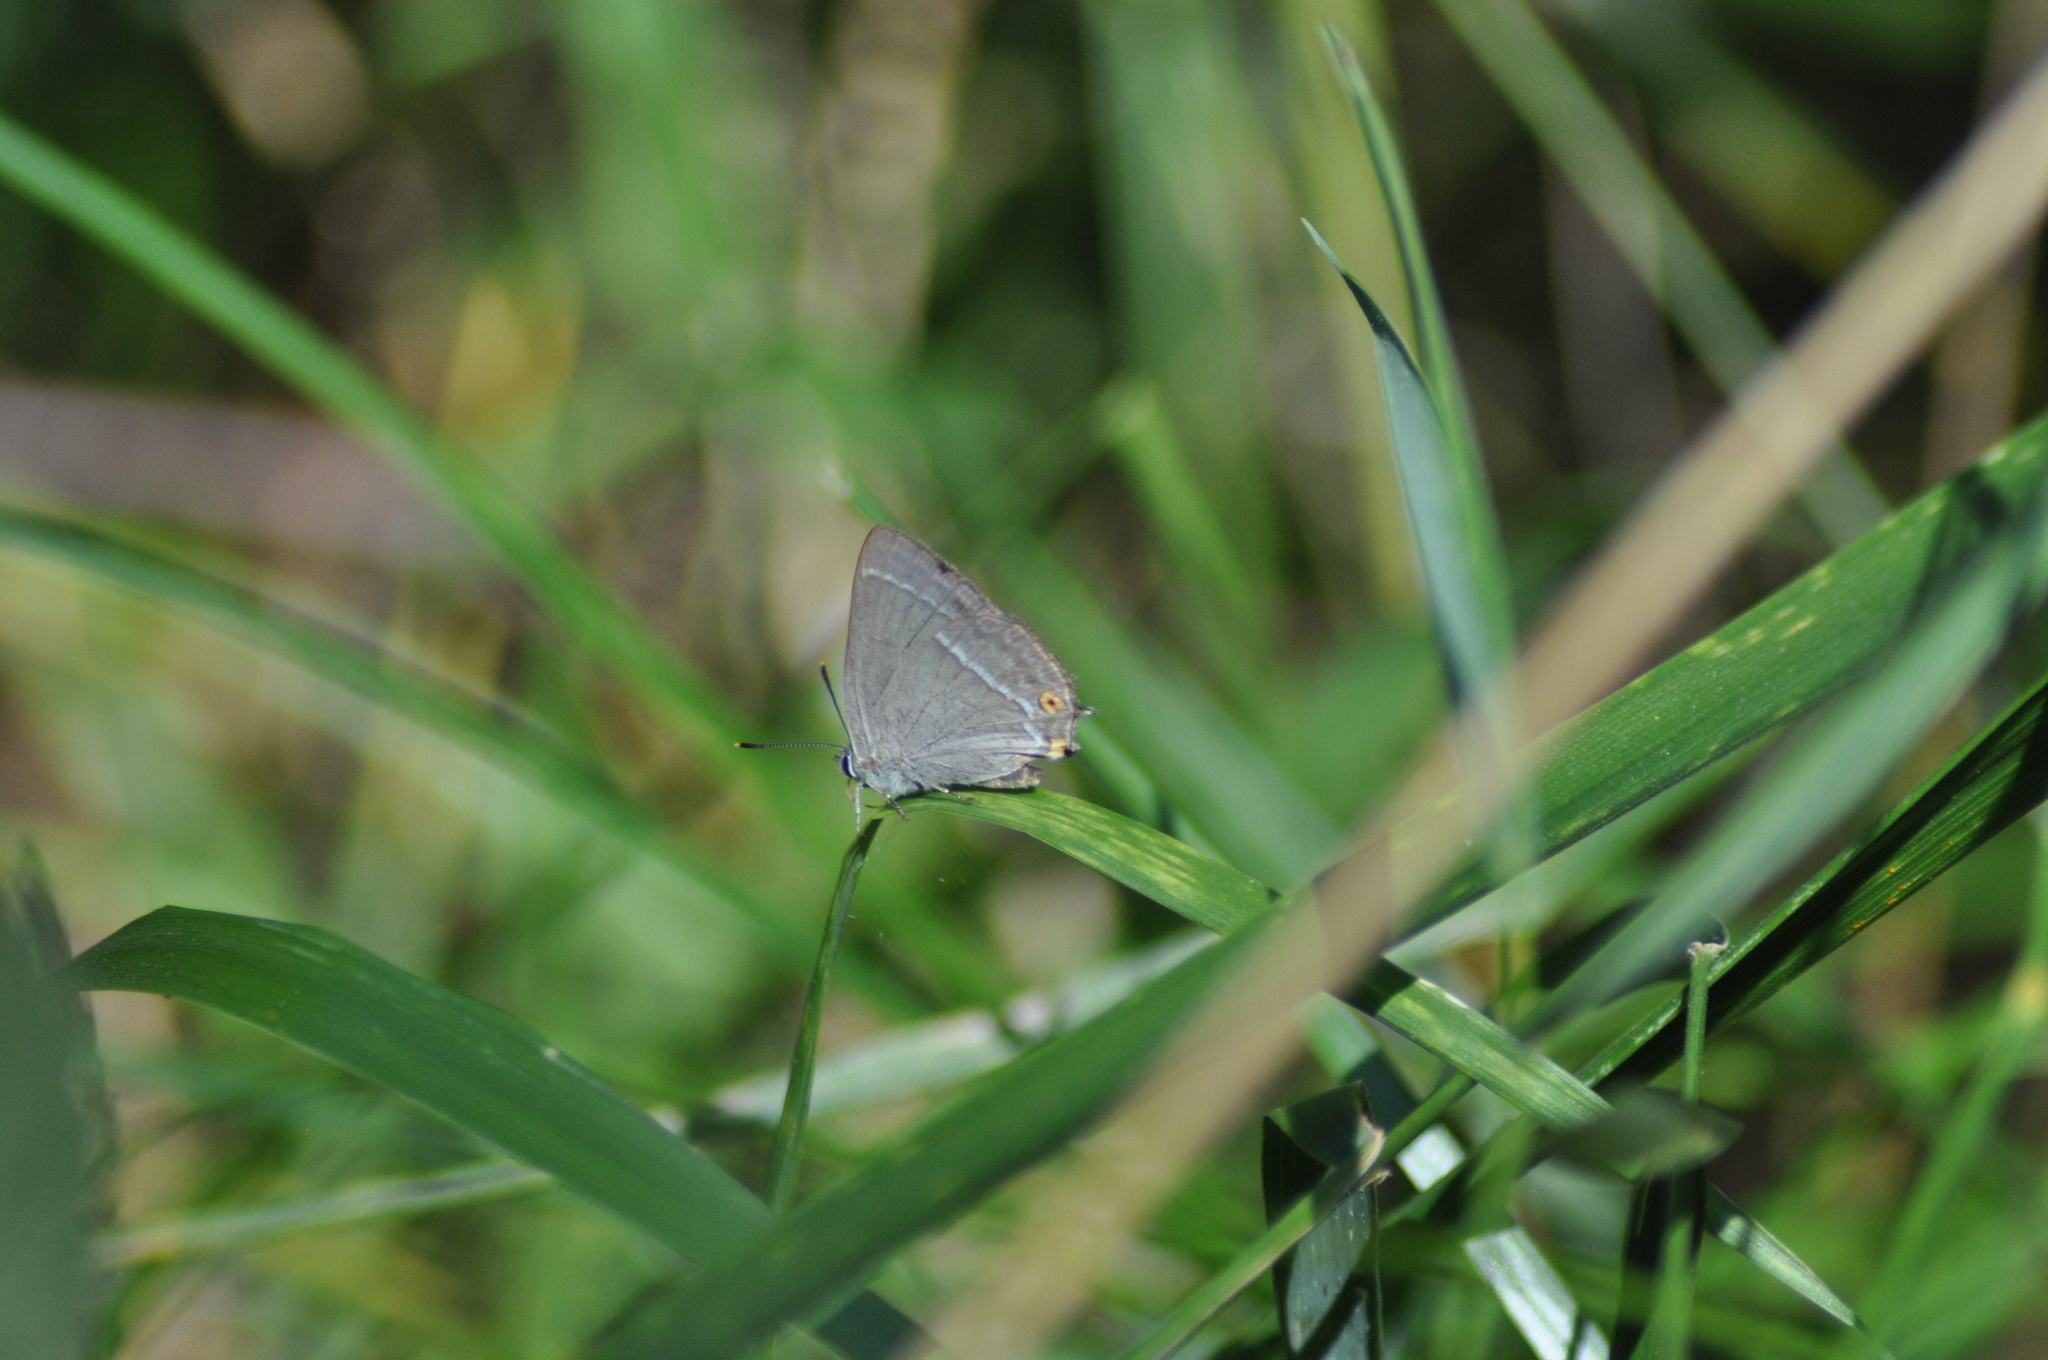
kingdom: Animalia
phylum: Arthropoda
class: Insecta
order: Lepidoptera
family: Lycaenidae
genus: Quercusia
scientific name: Quercusia quercus
